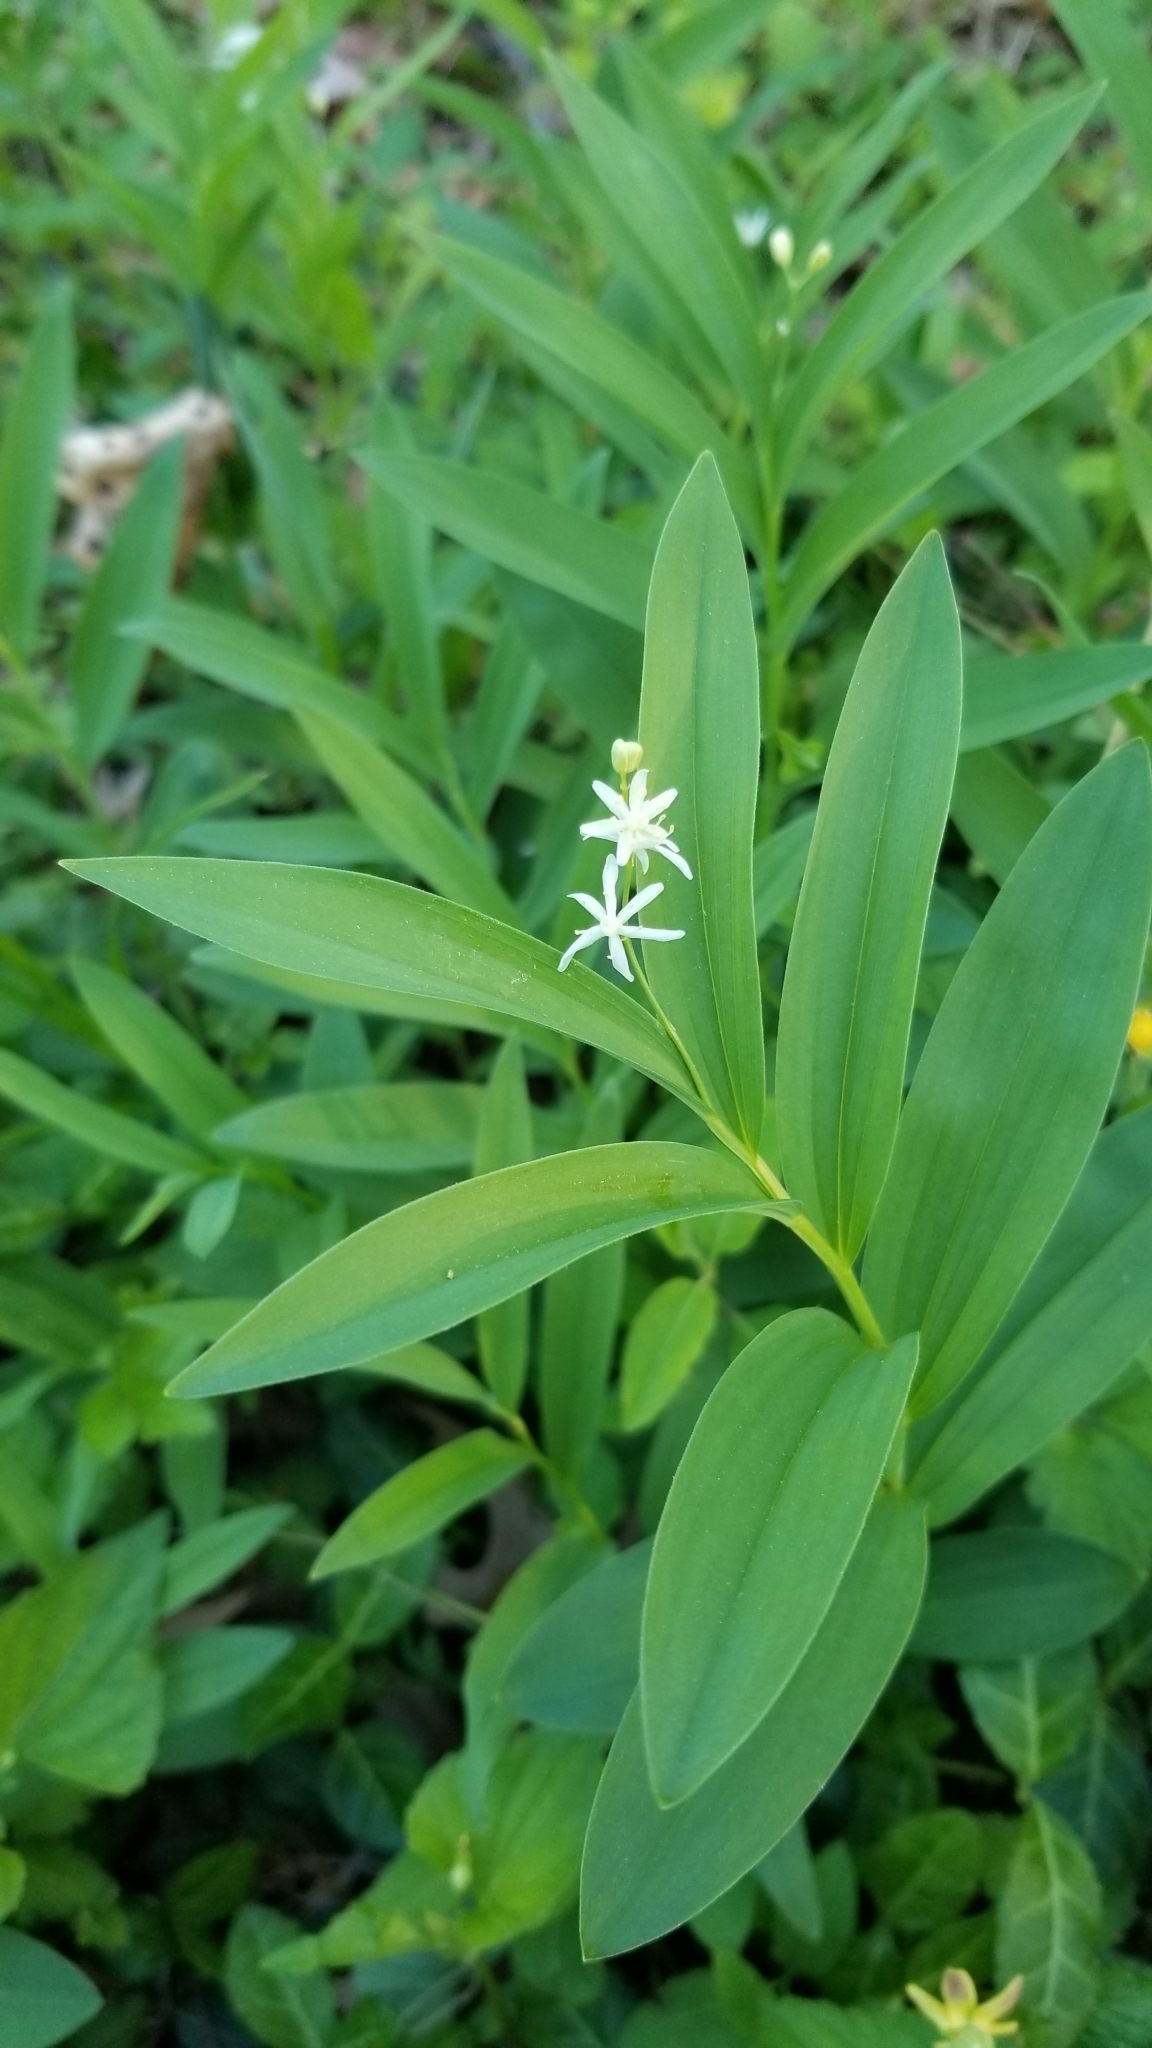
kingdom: Plantae
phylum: Tracheophyta
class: Liliopsida
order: Asparagales
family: Asparagaceae
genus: Maianthemum
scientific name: Maianthemum stellatum
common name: Little false solomon's seal
